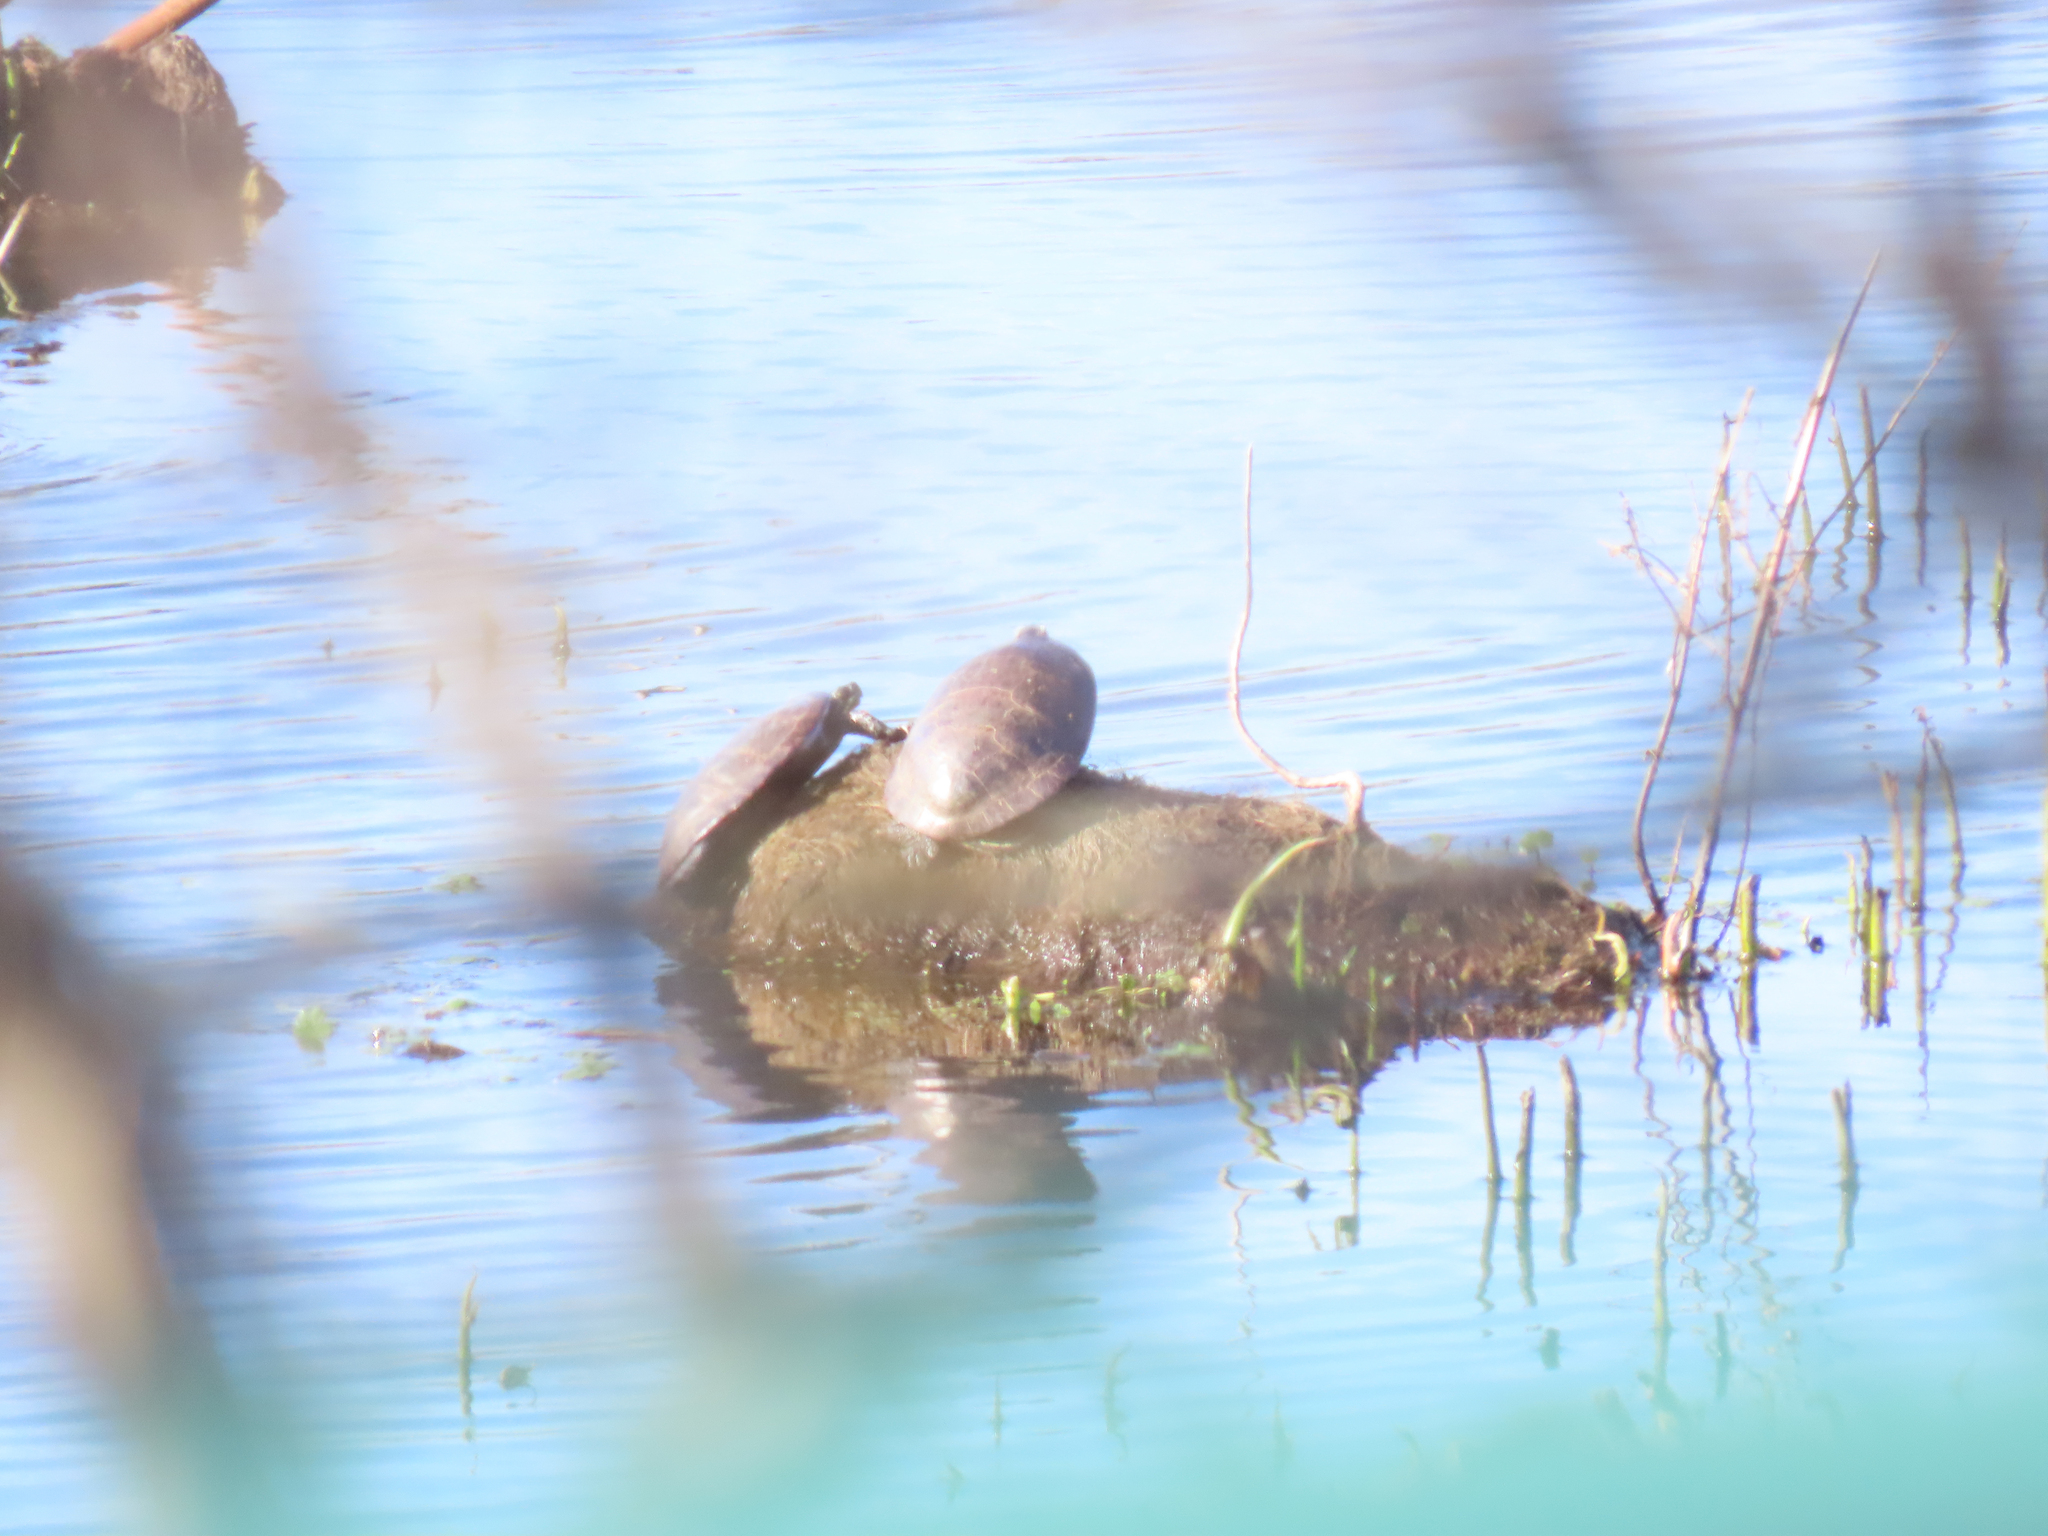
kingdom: Animalia
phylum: Chordata
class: Testudines
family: Emydidae
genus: Chrysemys
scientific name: Chrysemys picta
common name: Painted turtle
